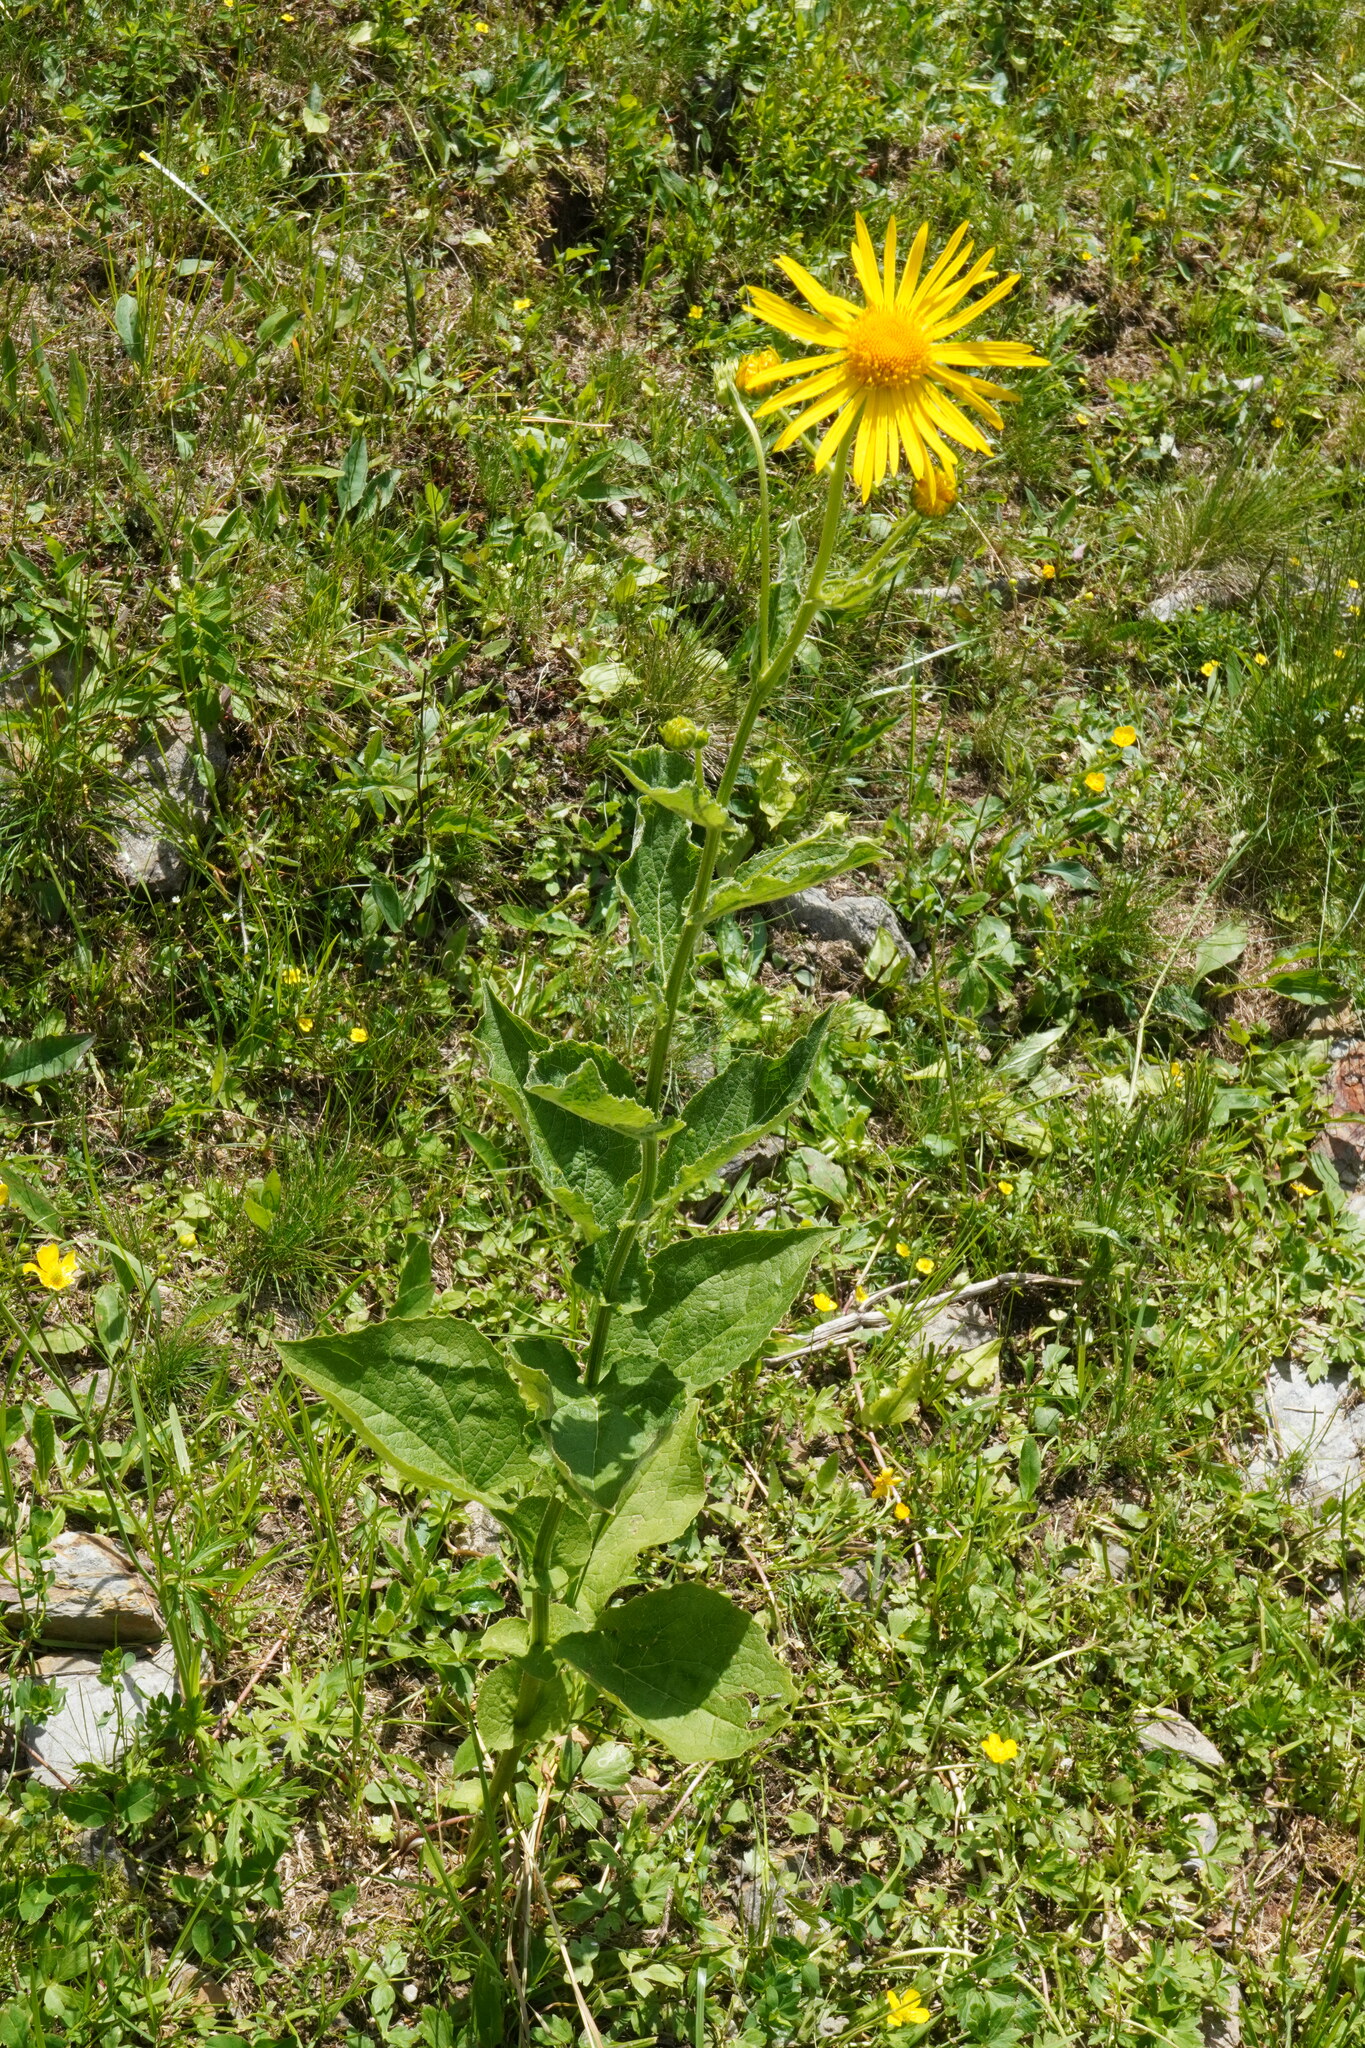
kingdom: Plantae
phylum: Tracheophyta
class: Magnoliopsida
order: Asterales
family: Asteraceae
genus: Doronicum
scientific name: Doronicum austriacum
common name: Austrian leopard's-bane
